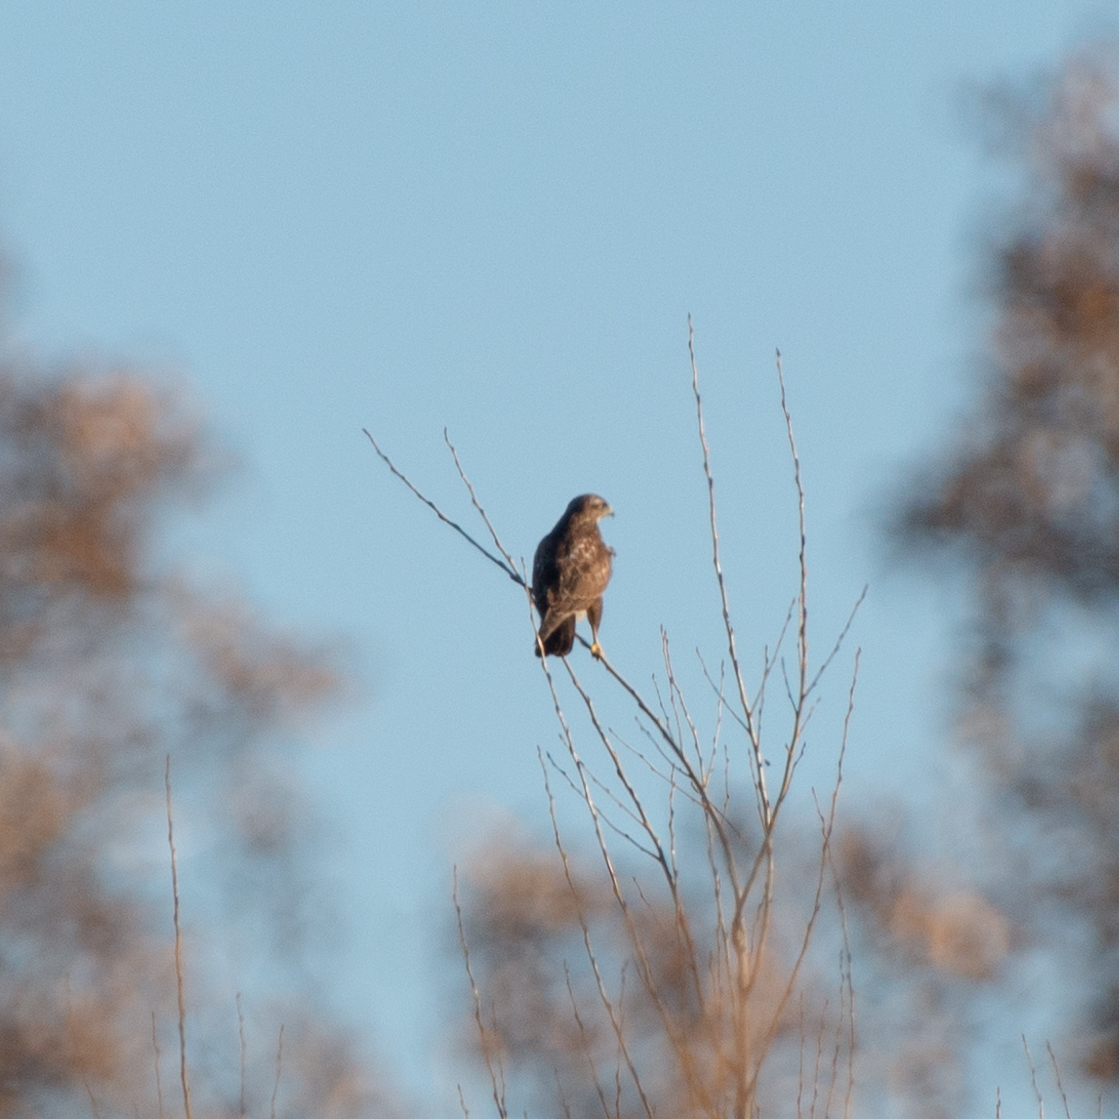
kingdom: Animalia
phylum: Chordata
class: Aves
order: Accipitriformes
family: Accipitridae
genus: Buteo
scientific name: Buteo buteo
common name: Common buzzard
